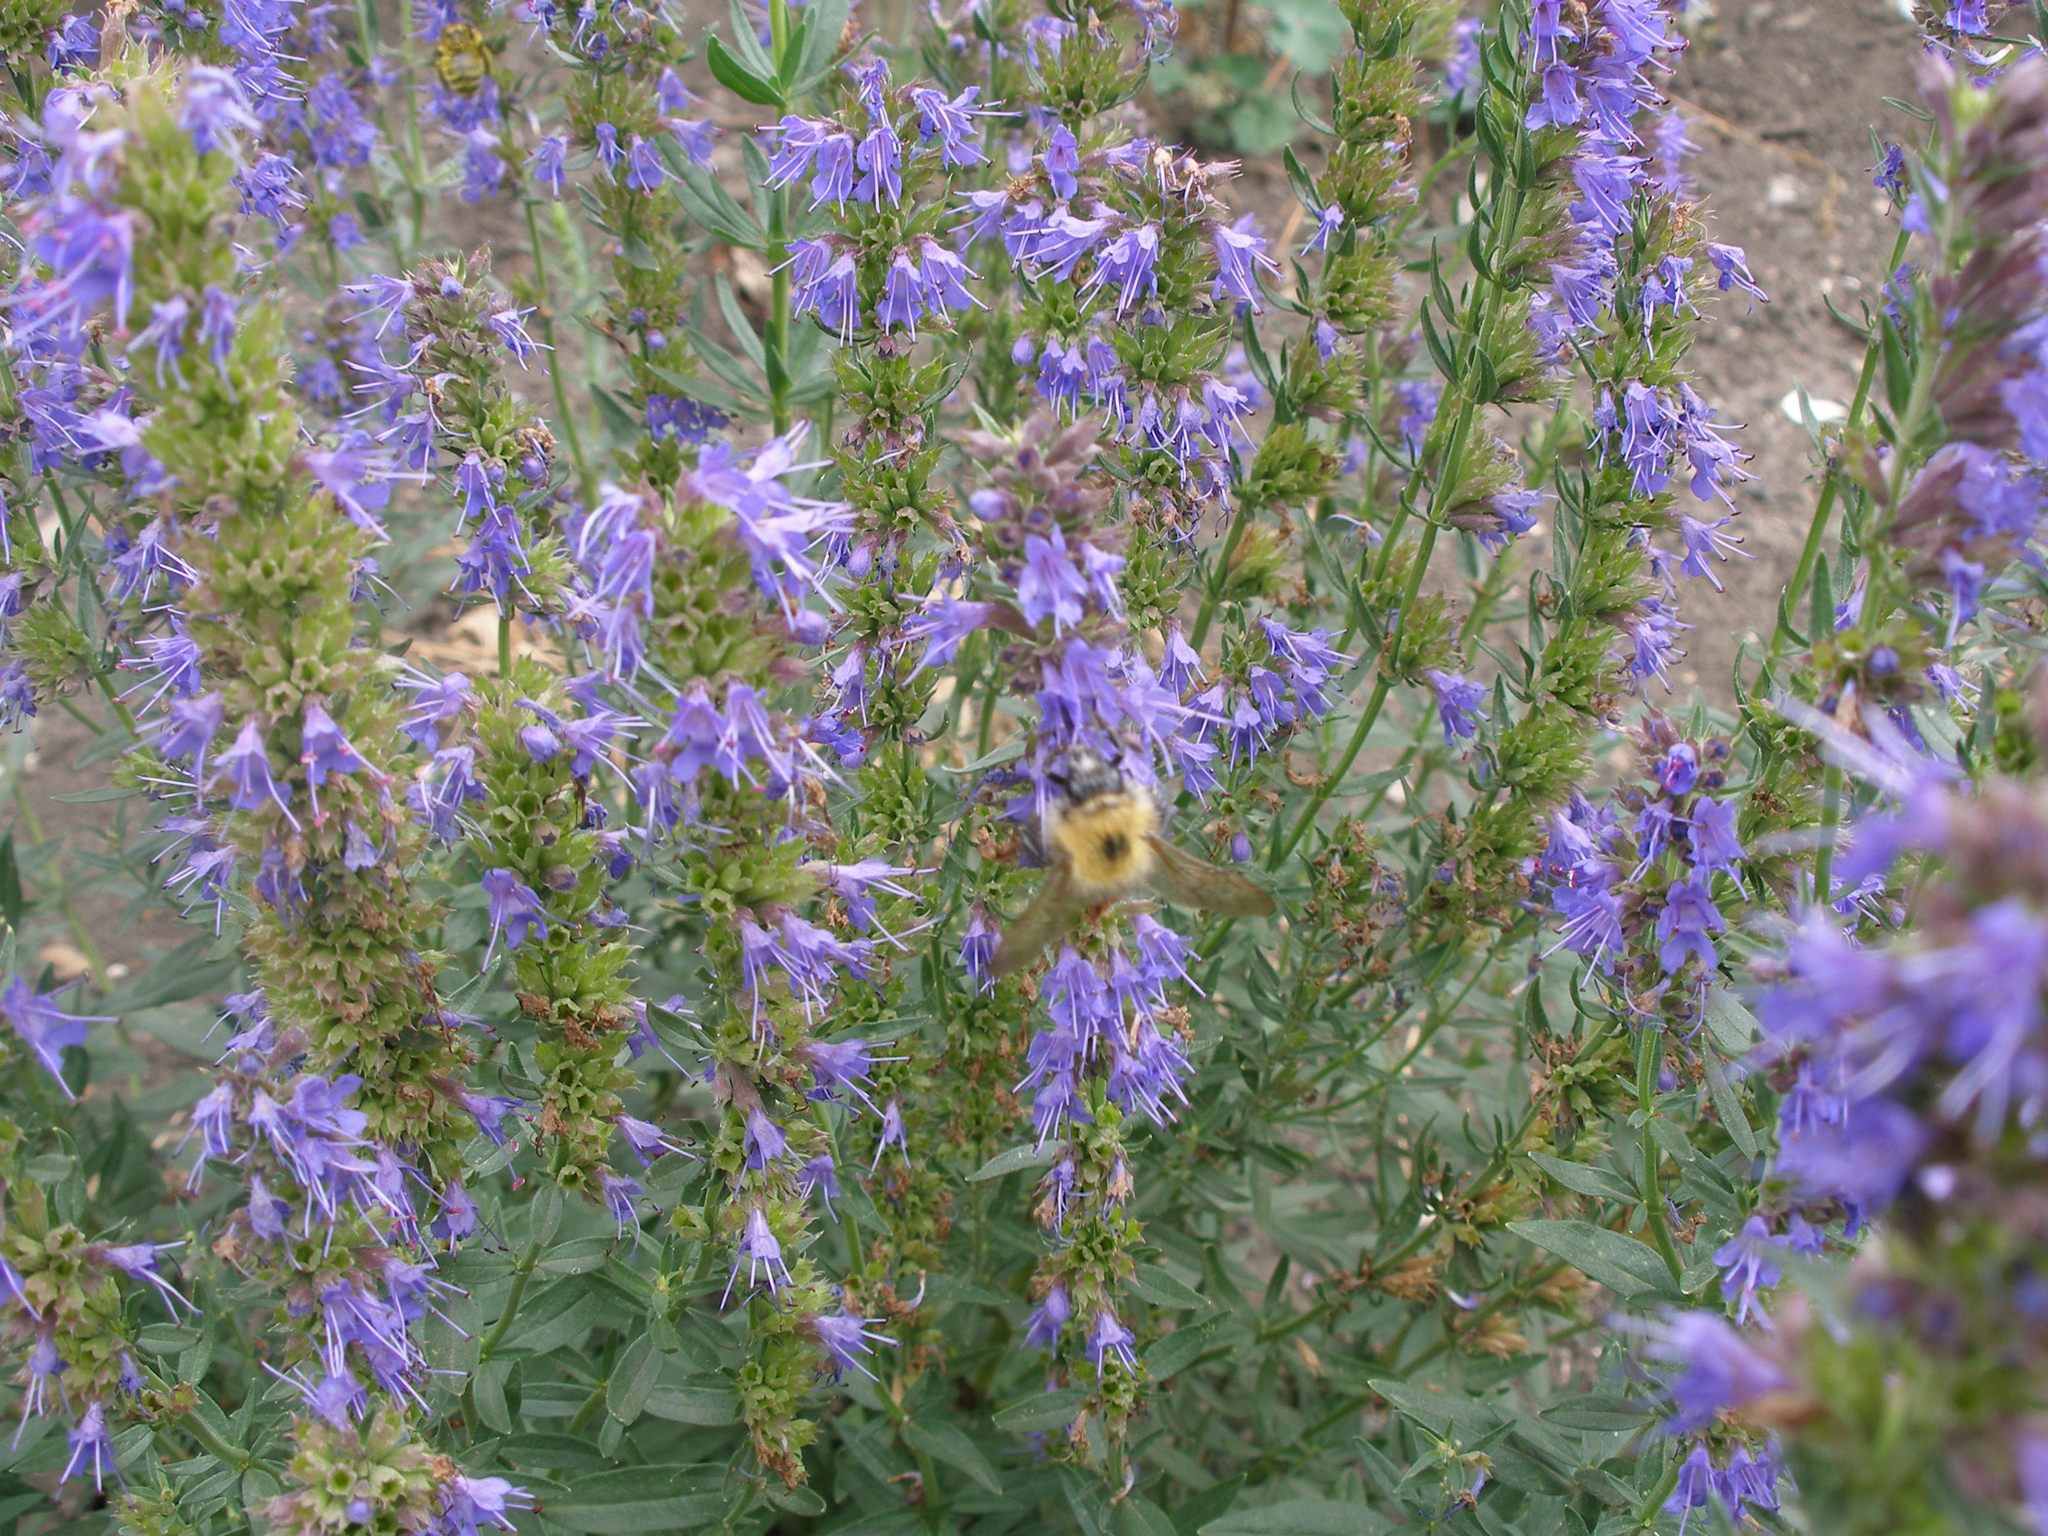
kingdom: Plantae
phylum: Tracheophyta
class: Liliopsida
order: Liliales
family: Melanthiaceae
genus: Paris
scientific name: Paris quadrifolia
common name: Herb-paris
